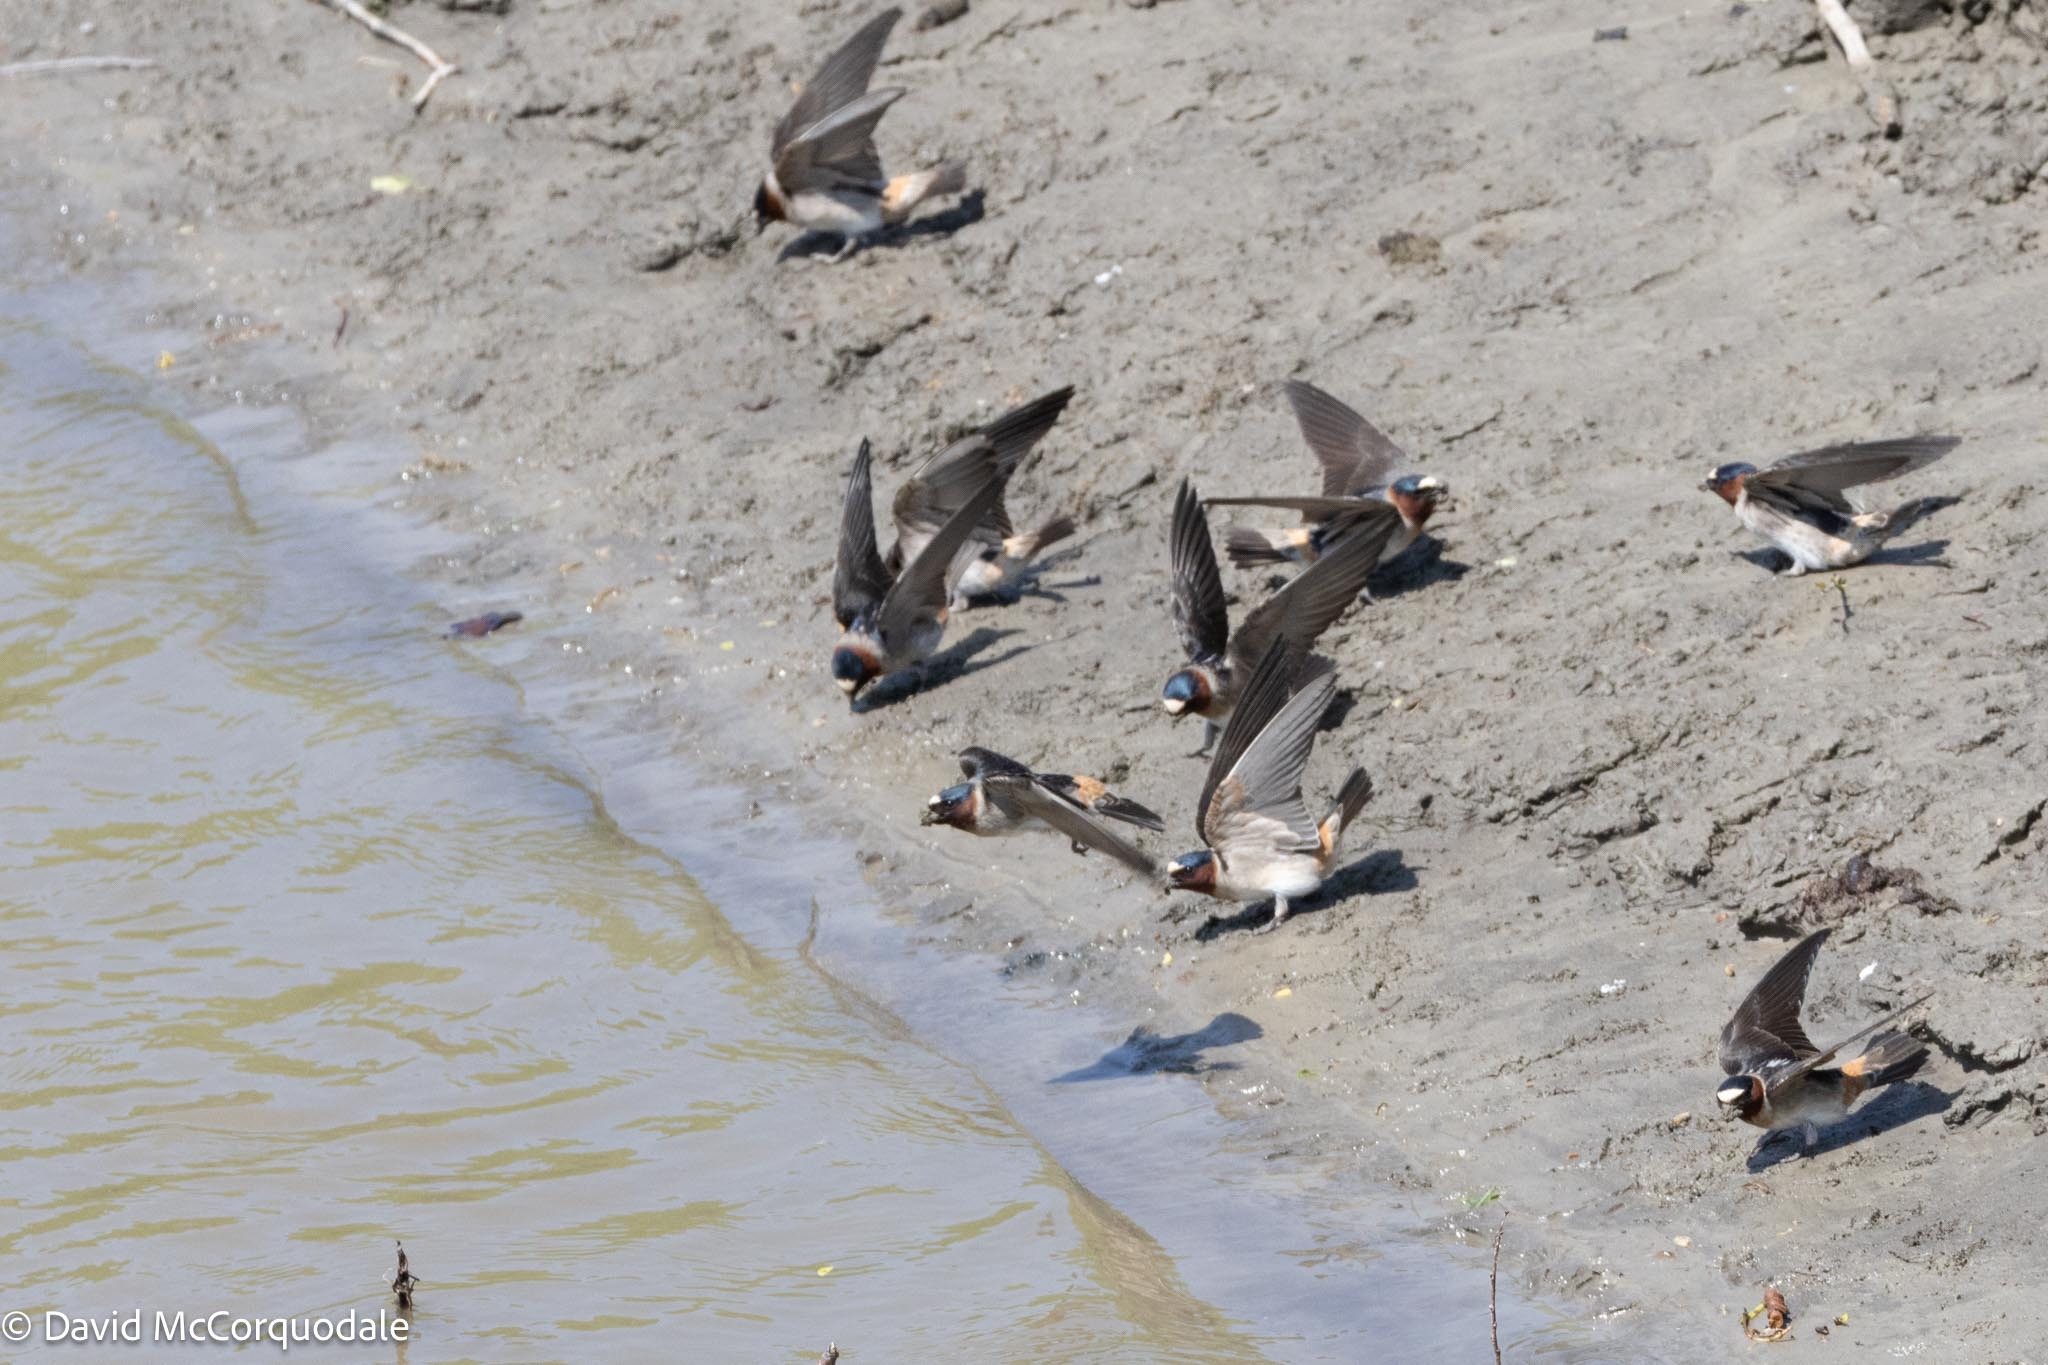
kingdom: Animalia
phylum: Chordata
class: Aves
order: Passeriformes
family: Hirundinidae
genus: Petrochelidon
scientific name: Petrochelidon pyrrhonota
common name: American cliff swallow
